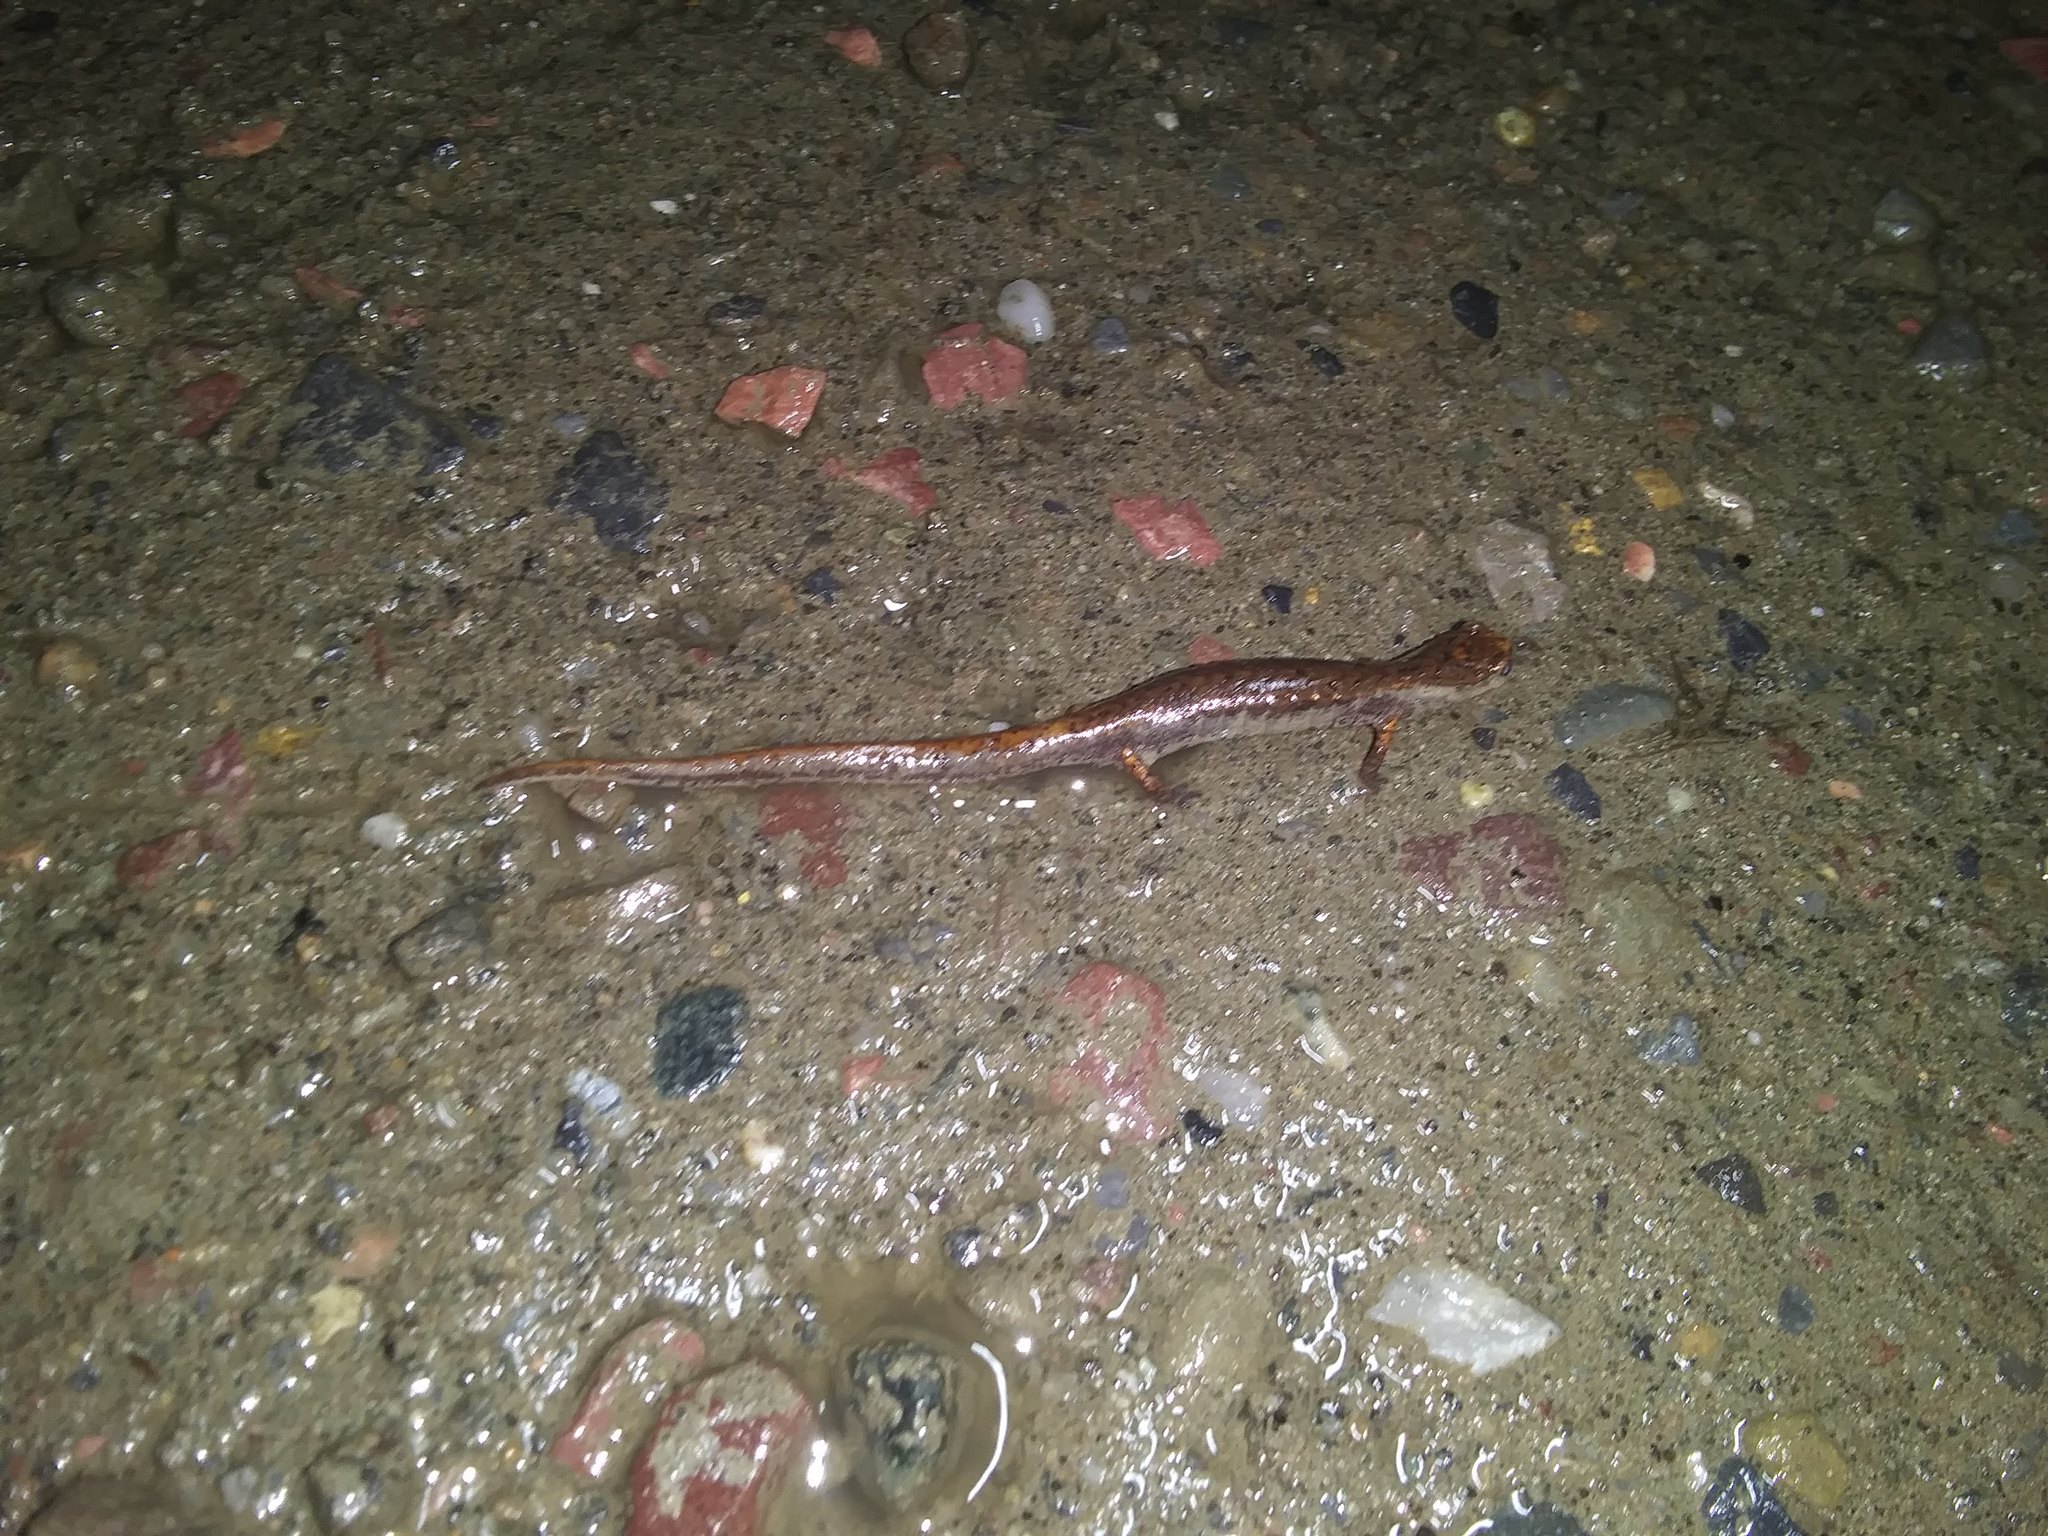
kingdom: Animalia
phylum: Chordata
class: Amphibia
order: Caudata
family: Plethodontidae
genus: Hemidactylium
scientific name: Hemidactylium scutatum
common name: Four-toed salamander
